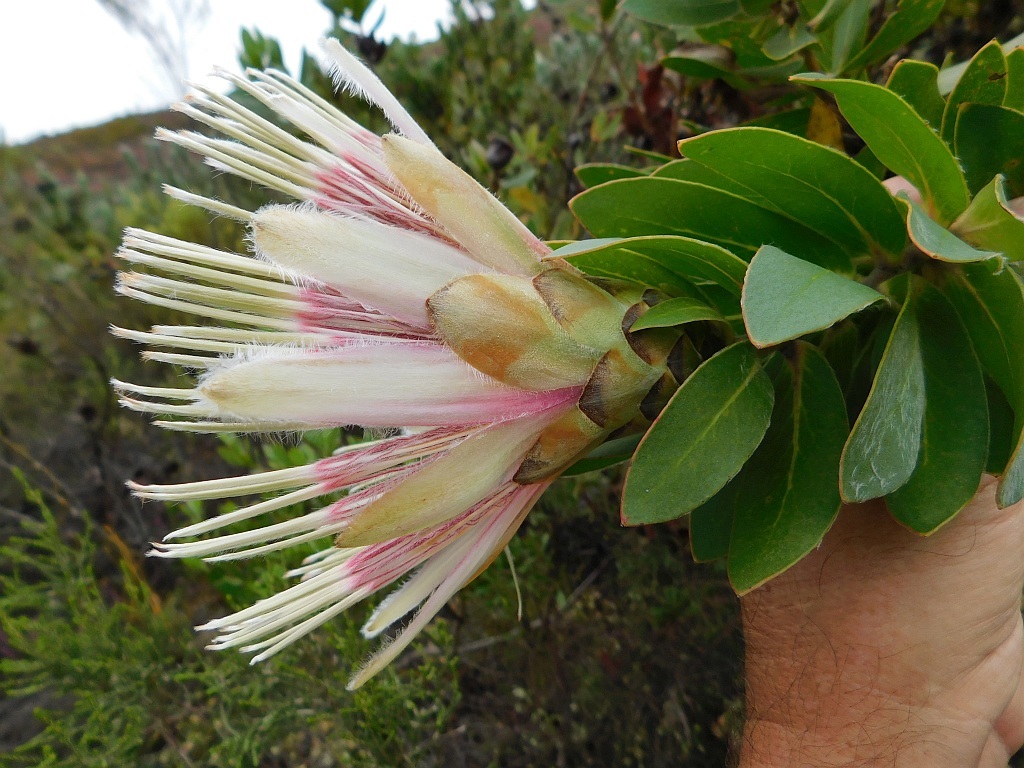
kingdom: Plantae
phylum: Tracheophyta
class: Magnoliopsida
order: Proteales
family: Proteaceae
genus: Protea
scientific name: Protea aurea
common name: Shuttlecock sugarbush
